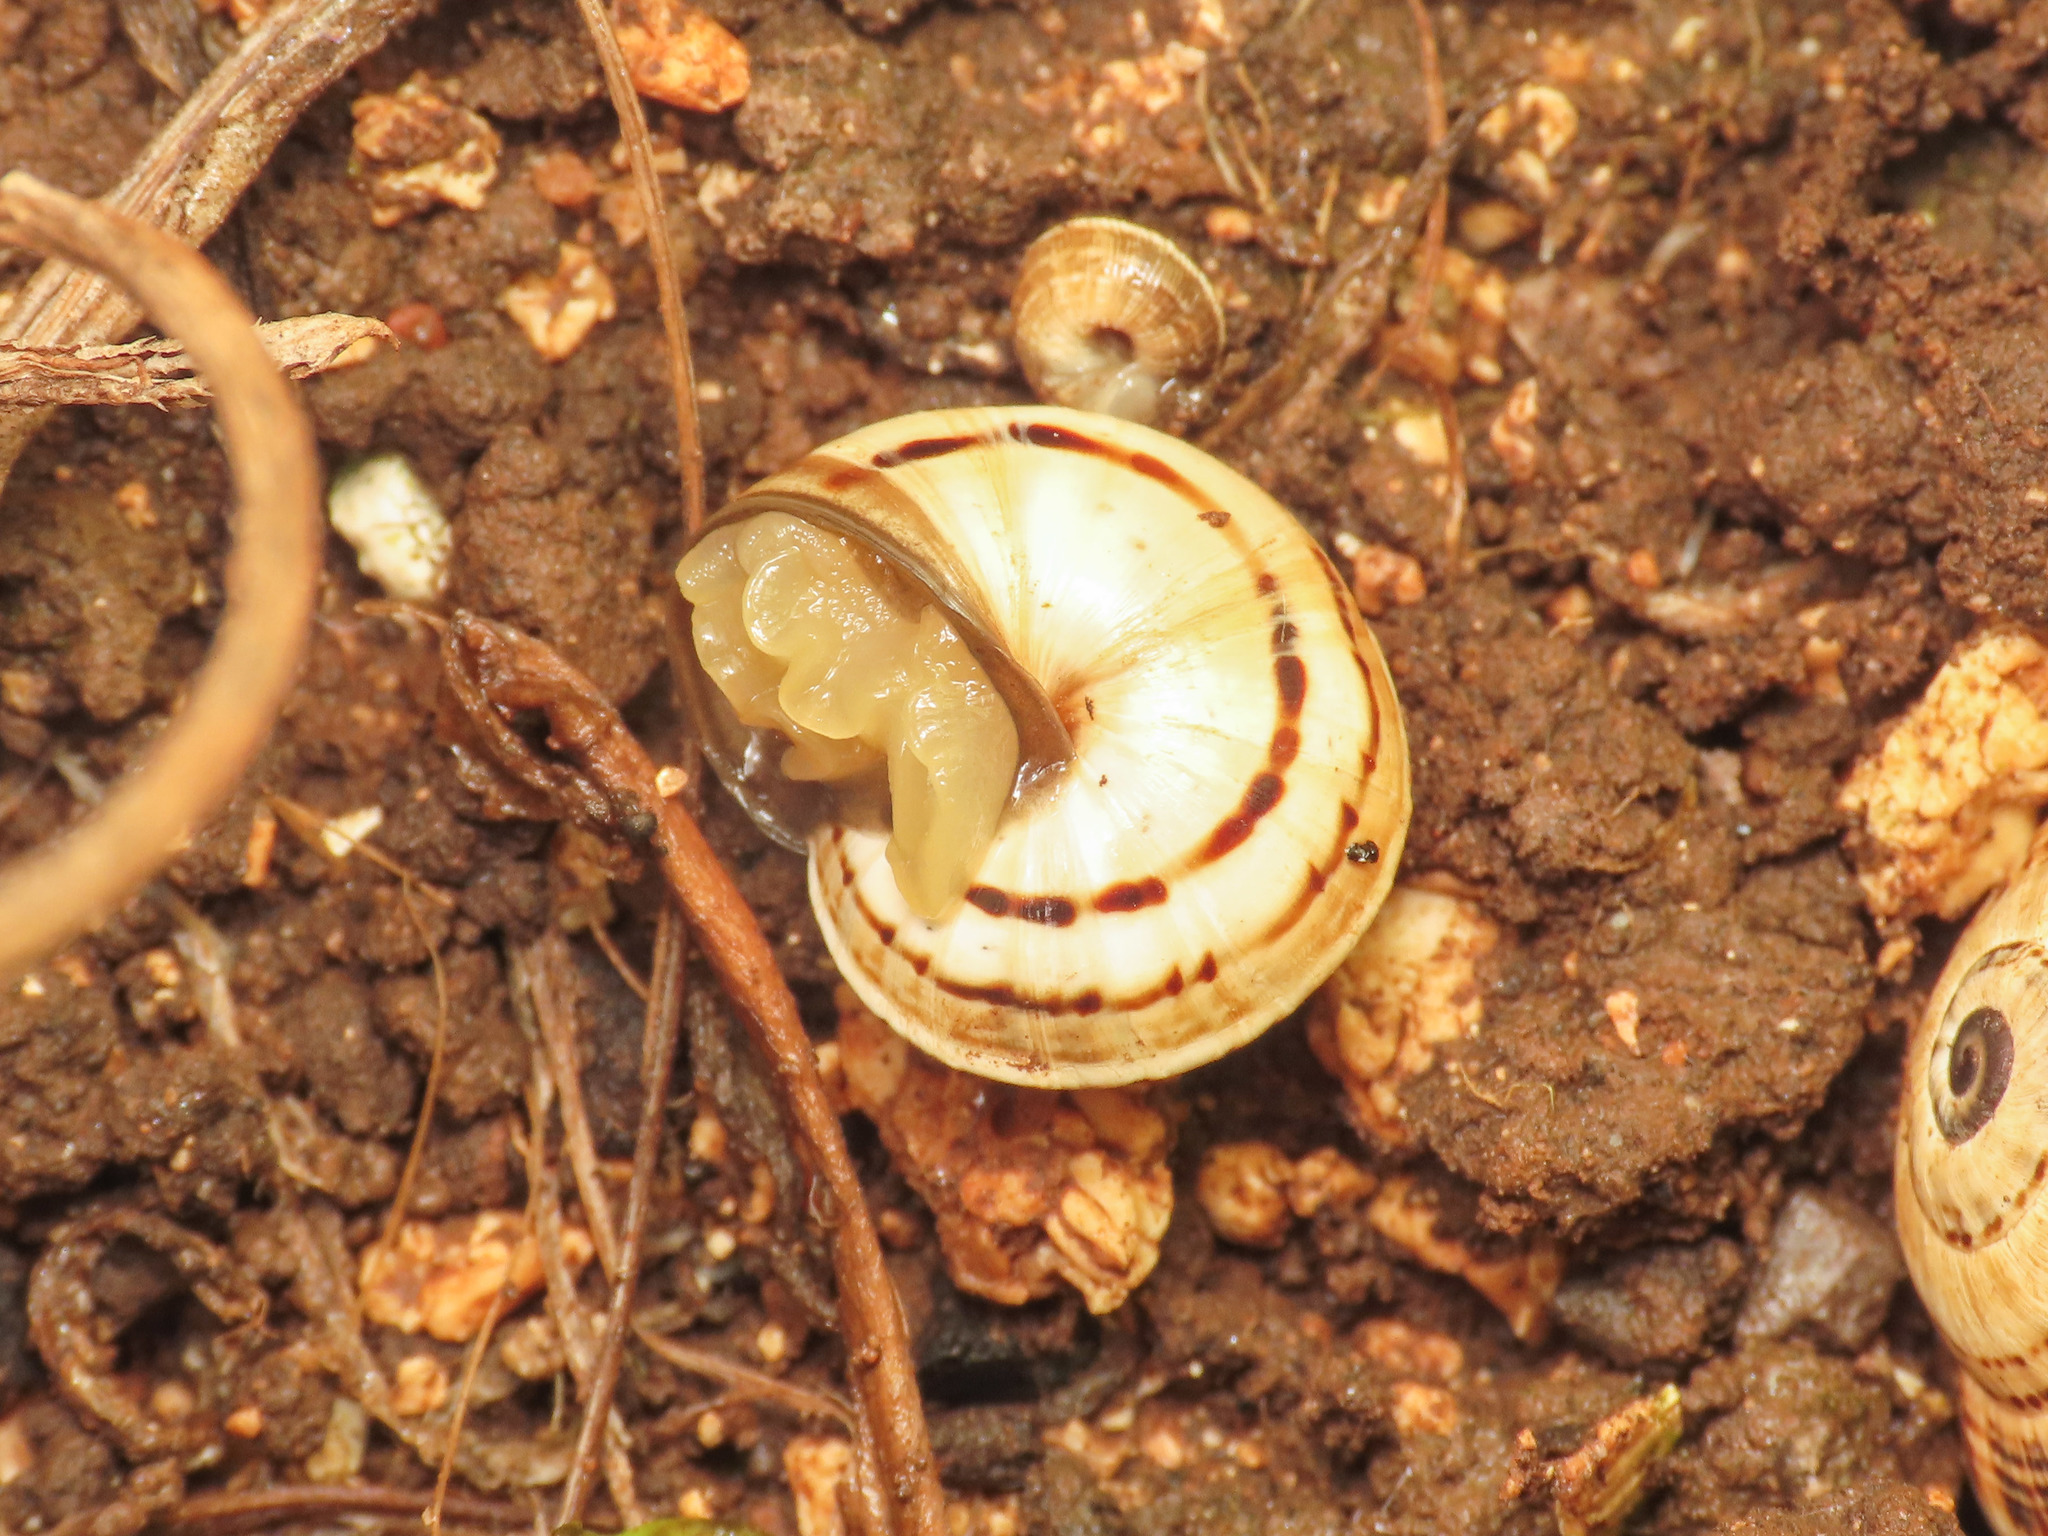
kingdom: Animalia
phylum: Mollusca
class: Gastropoda
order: Stylommatophora
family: Helicidae
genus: Theba
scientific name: Theba pisana
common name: White snail
